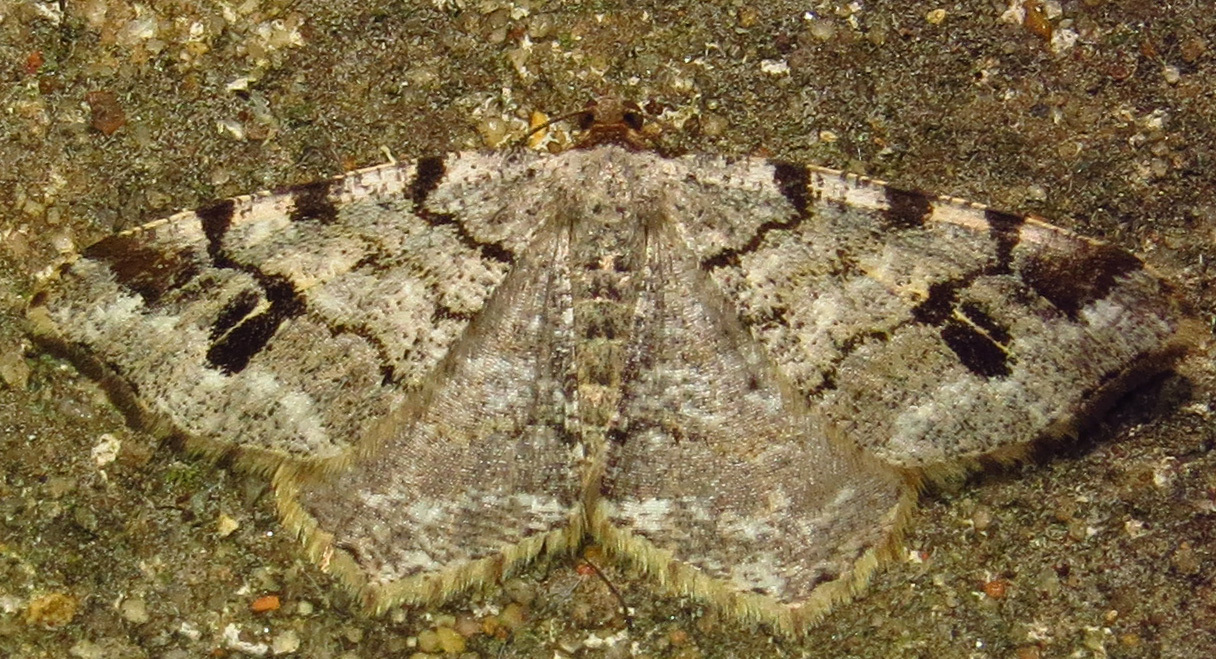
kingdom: Animalia
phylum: Arthropoda
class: Insecta
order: Lepidoptera
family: Geometridae
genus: Macaria
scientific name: Macaria fissinotata
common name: Hemlock angle
